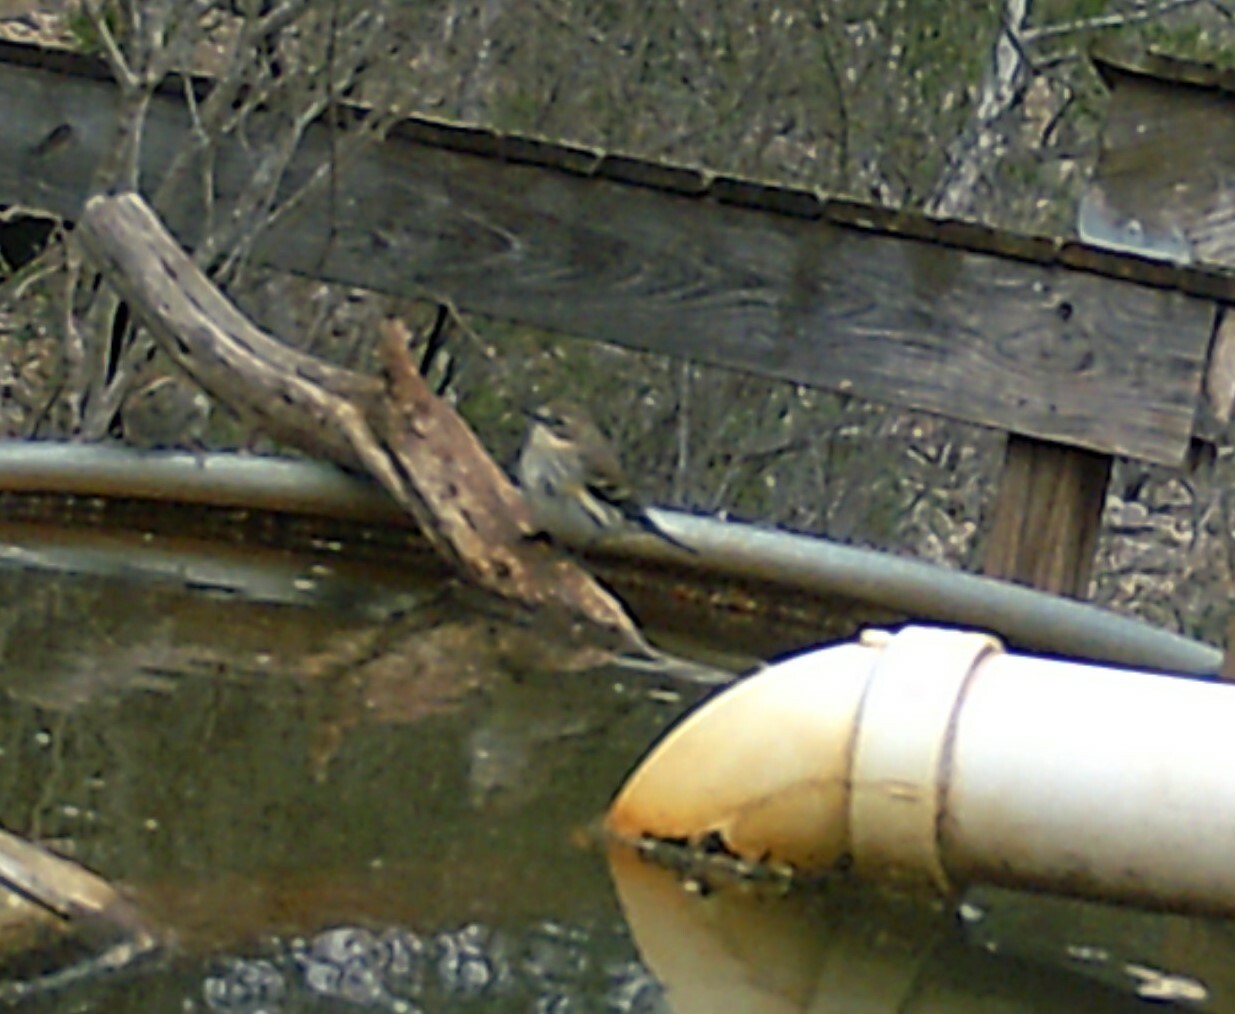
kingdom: Animalia
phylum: Chordata
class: Aves
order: Passeriformes
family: Parulidae
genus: Setophaga
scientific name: Setophaga coronata
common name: Myrtle warbler
